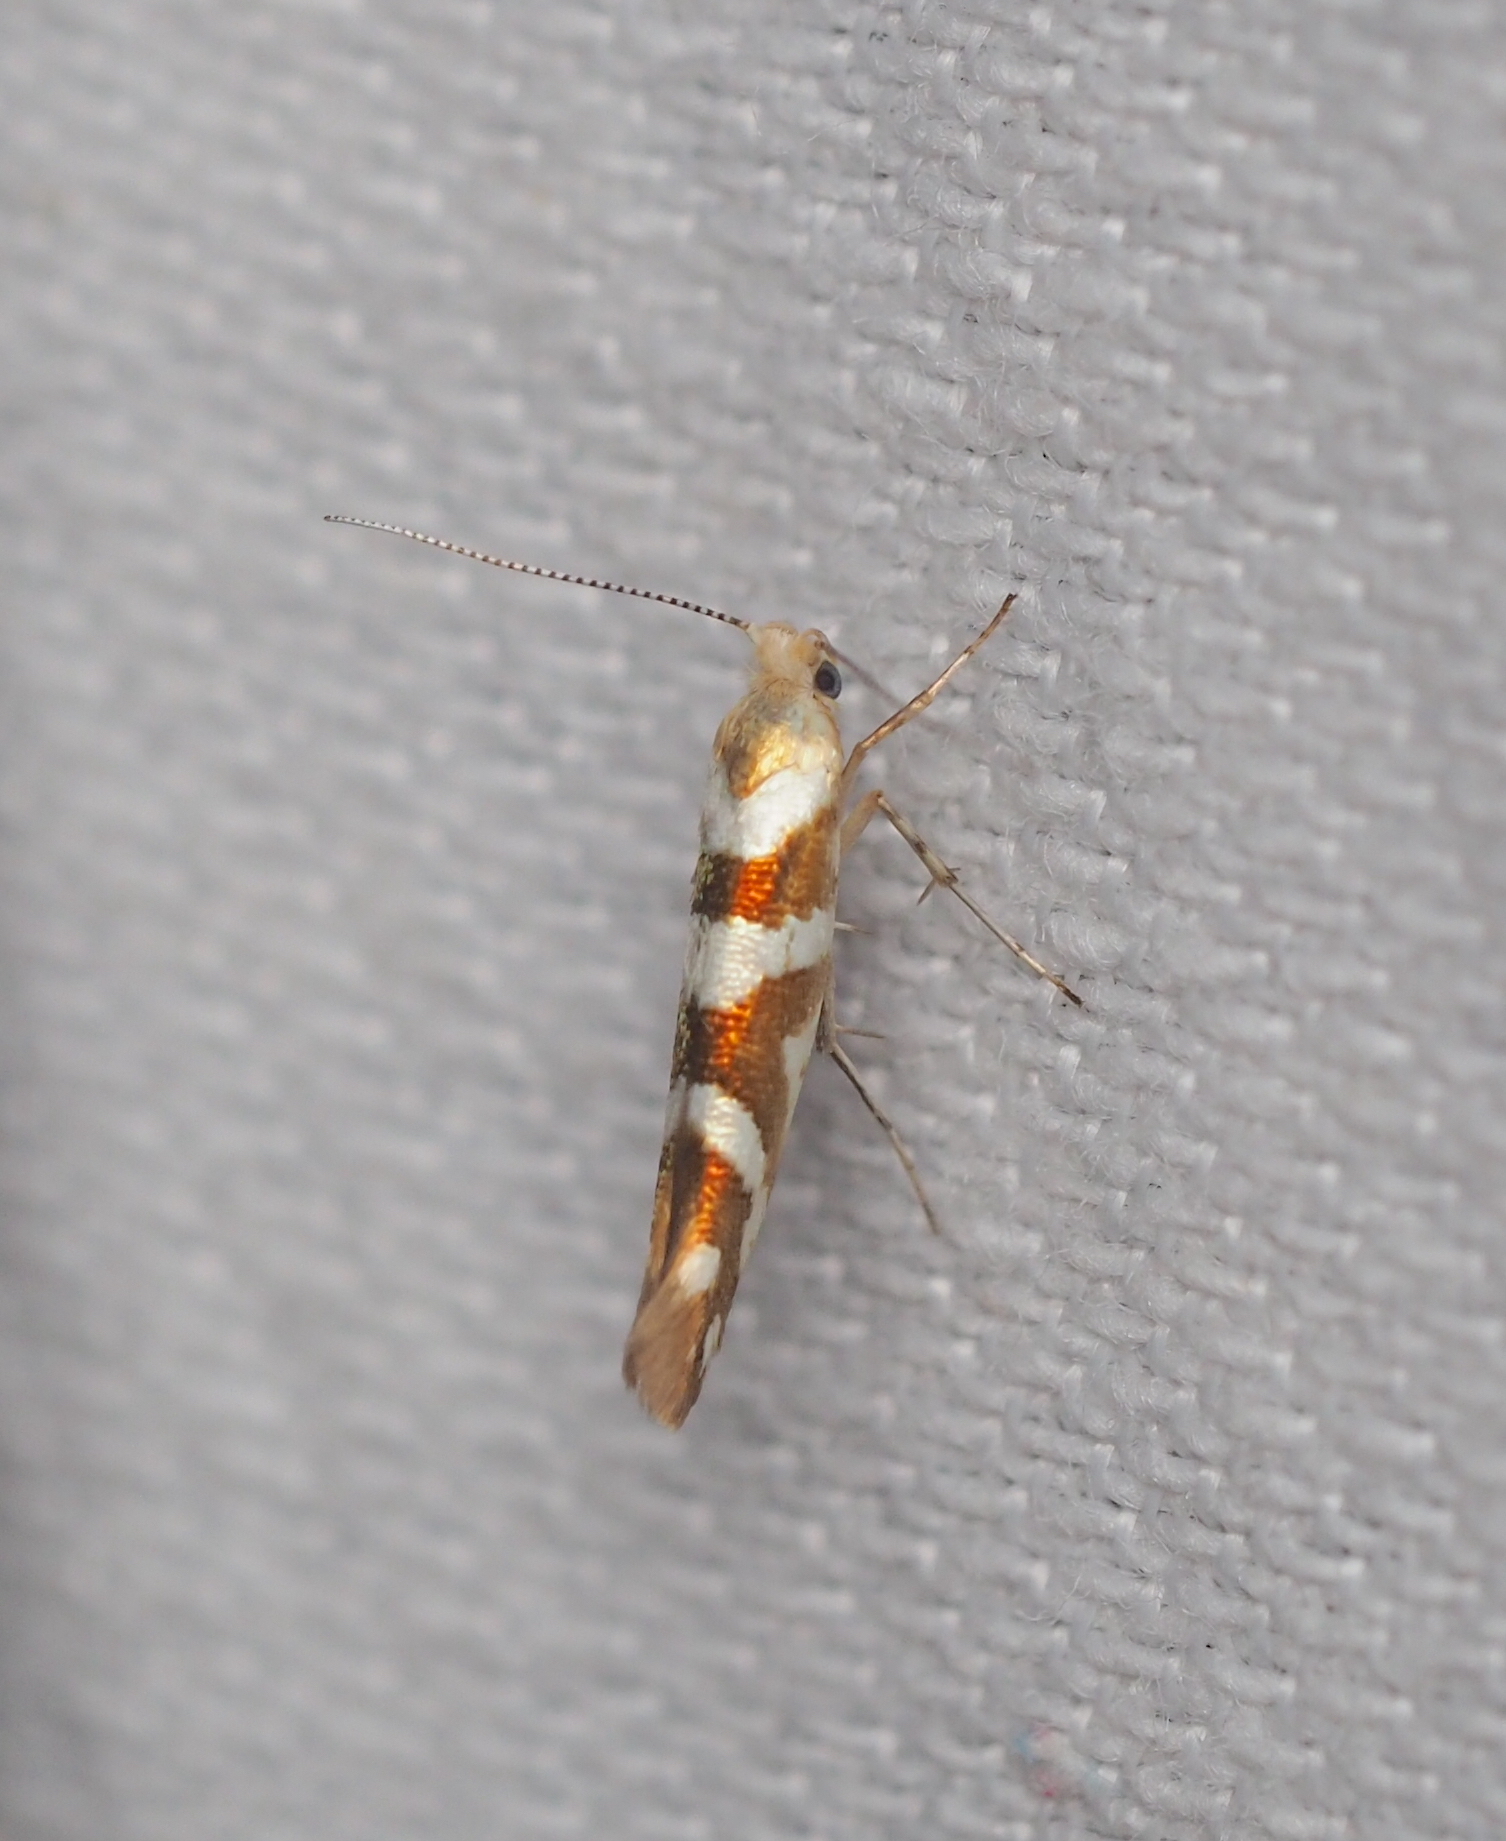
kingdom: Animalia
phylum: Arthropoda
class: Insecta
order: Lepidoptera
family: Argyresthiidae
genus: Argyresthia
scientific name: Argyresthia goedartella
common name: Golden argent
